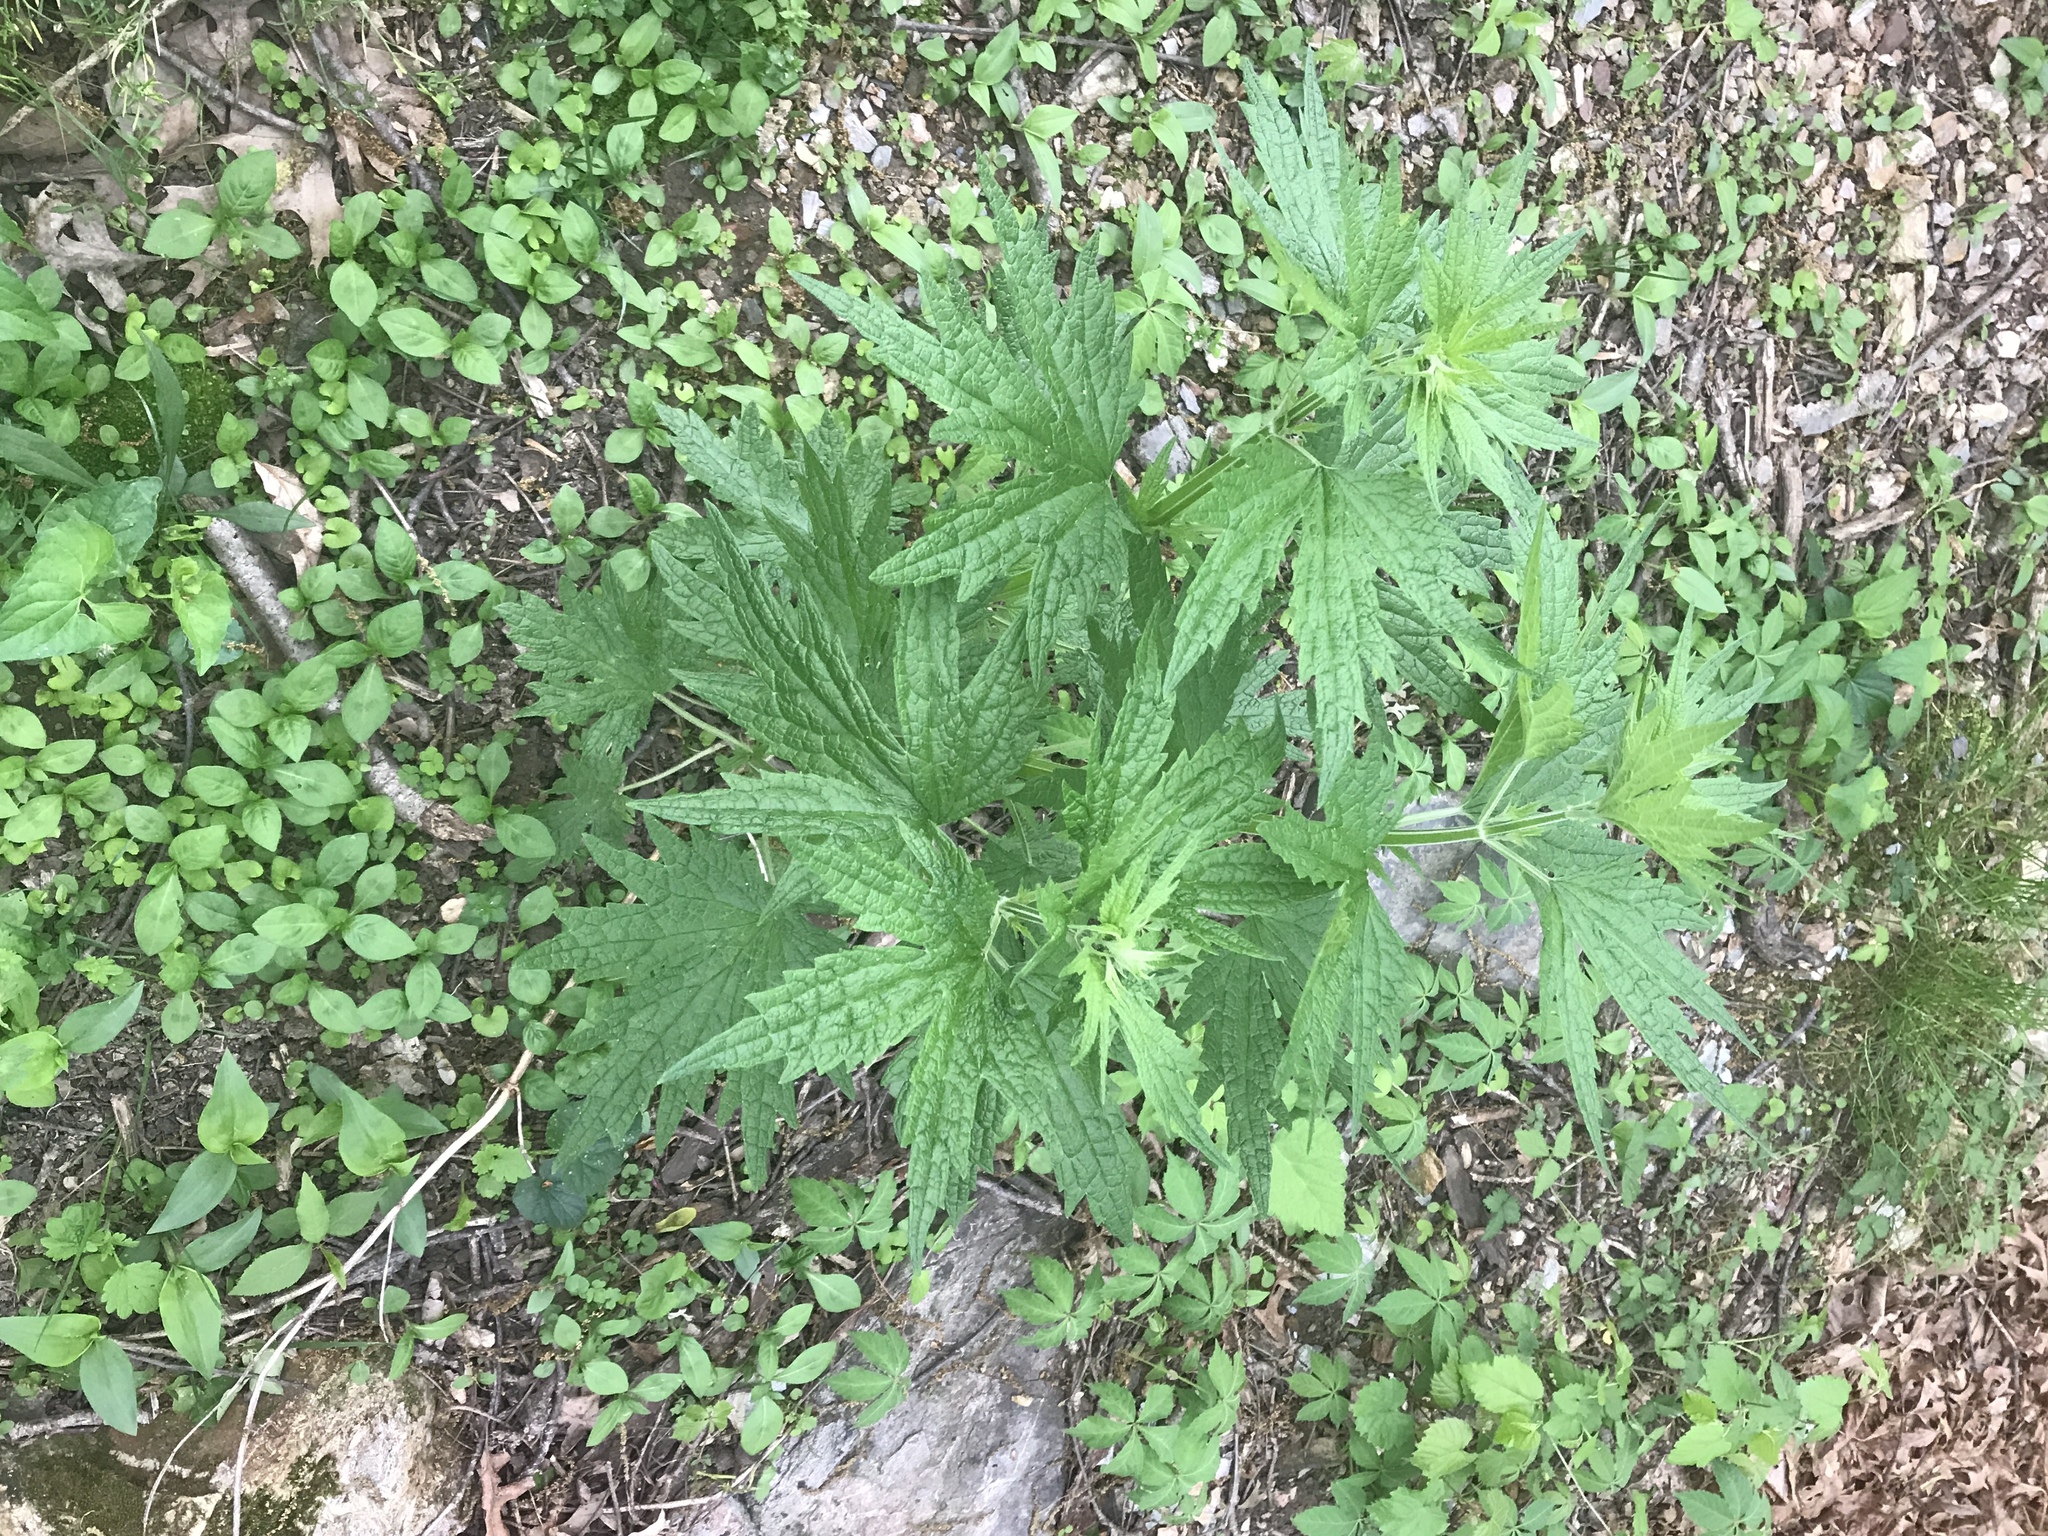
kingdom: Plantae
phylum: Tracheophyta
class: Magnoliopsida
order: Lamiales
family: Lamiaceae
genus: Leonurus
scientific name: Leonurus cardiaca
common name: Motherwort
